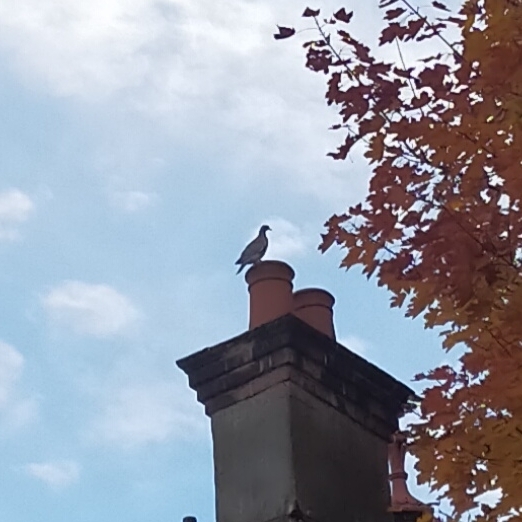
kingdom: Animalia
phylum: Chordata
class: Aves
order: Columbiformes
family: Columbidae
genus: Columba
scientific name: Columba palumbus
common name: Common wood pigeon
